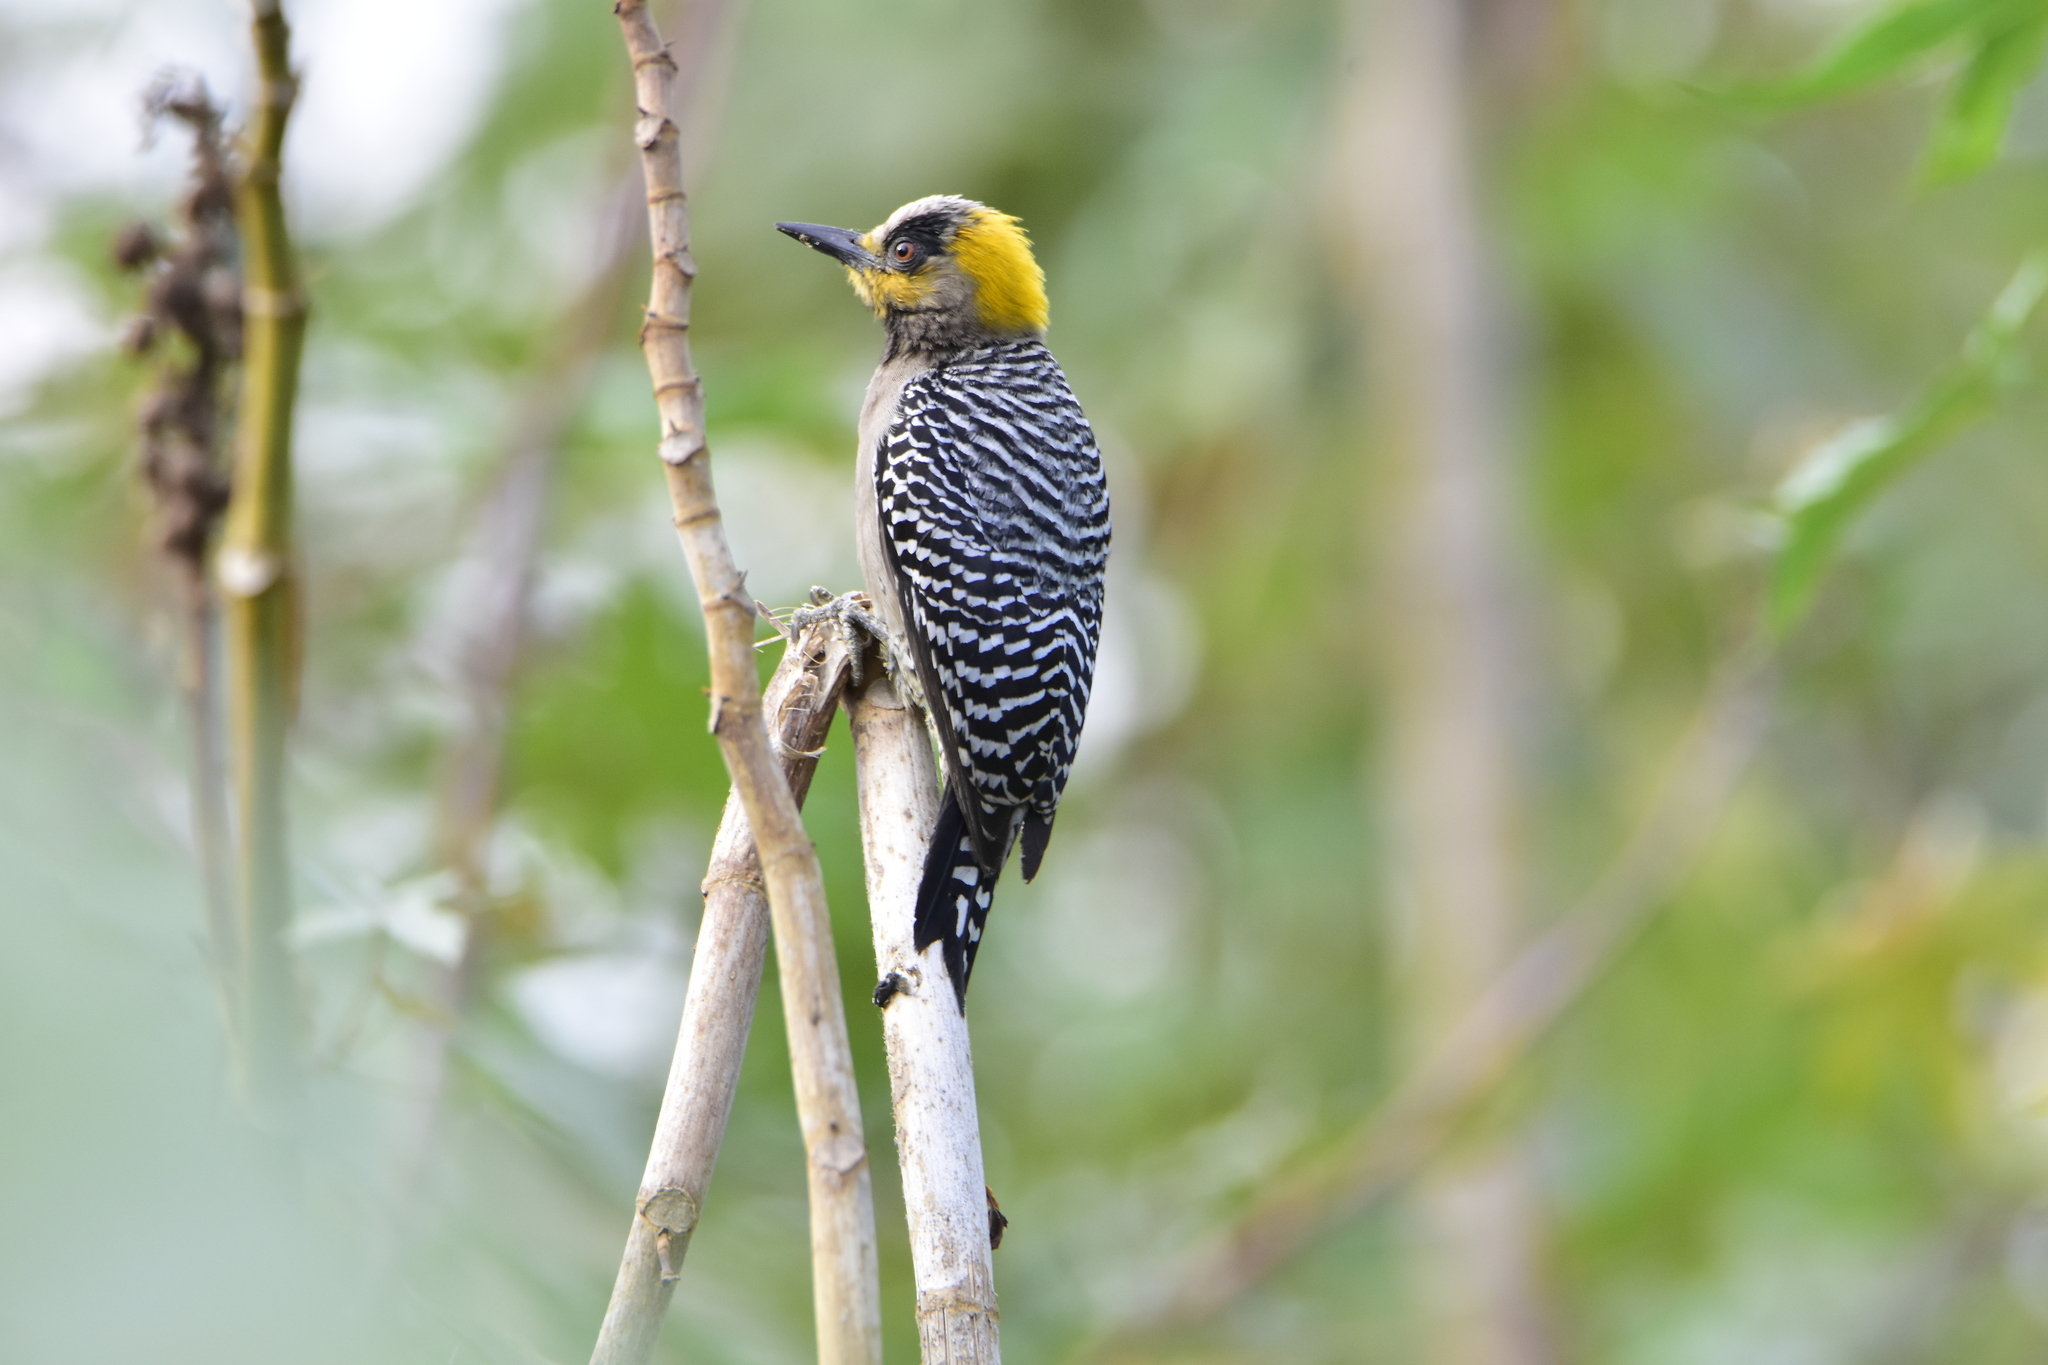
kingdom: Animalia
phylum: Chordata
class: Aves
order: Piciformes
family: Picidae
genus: Melanerpes
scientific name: Melanerpes chrysogenys
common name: Golden-cheeked woodpecker
